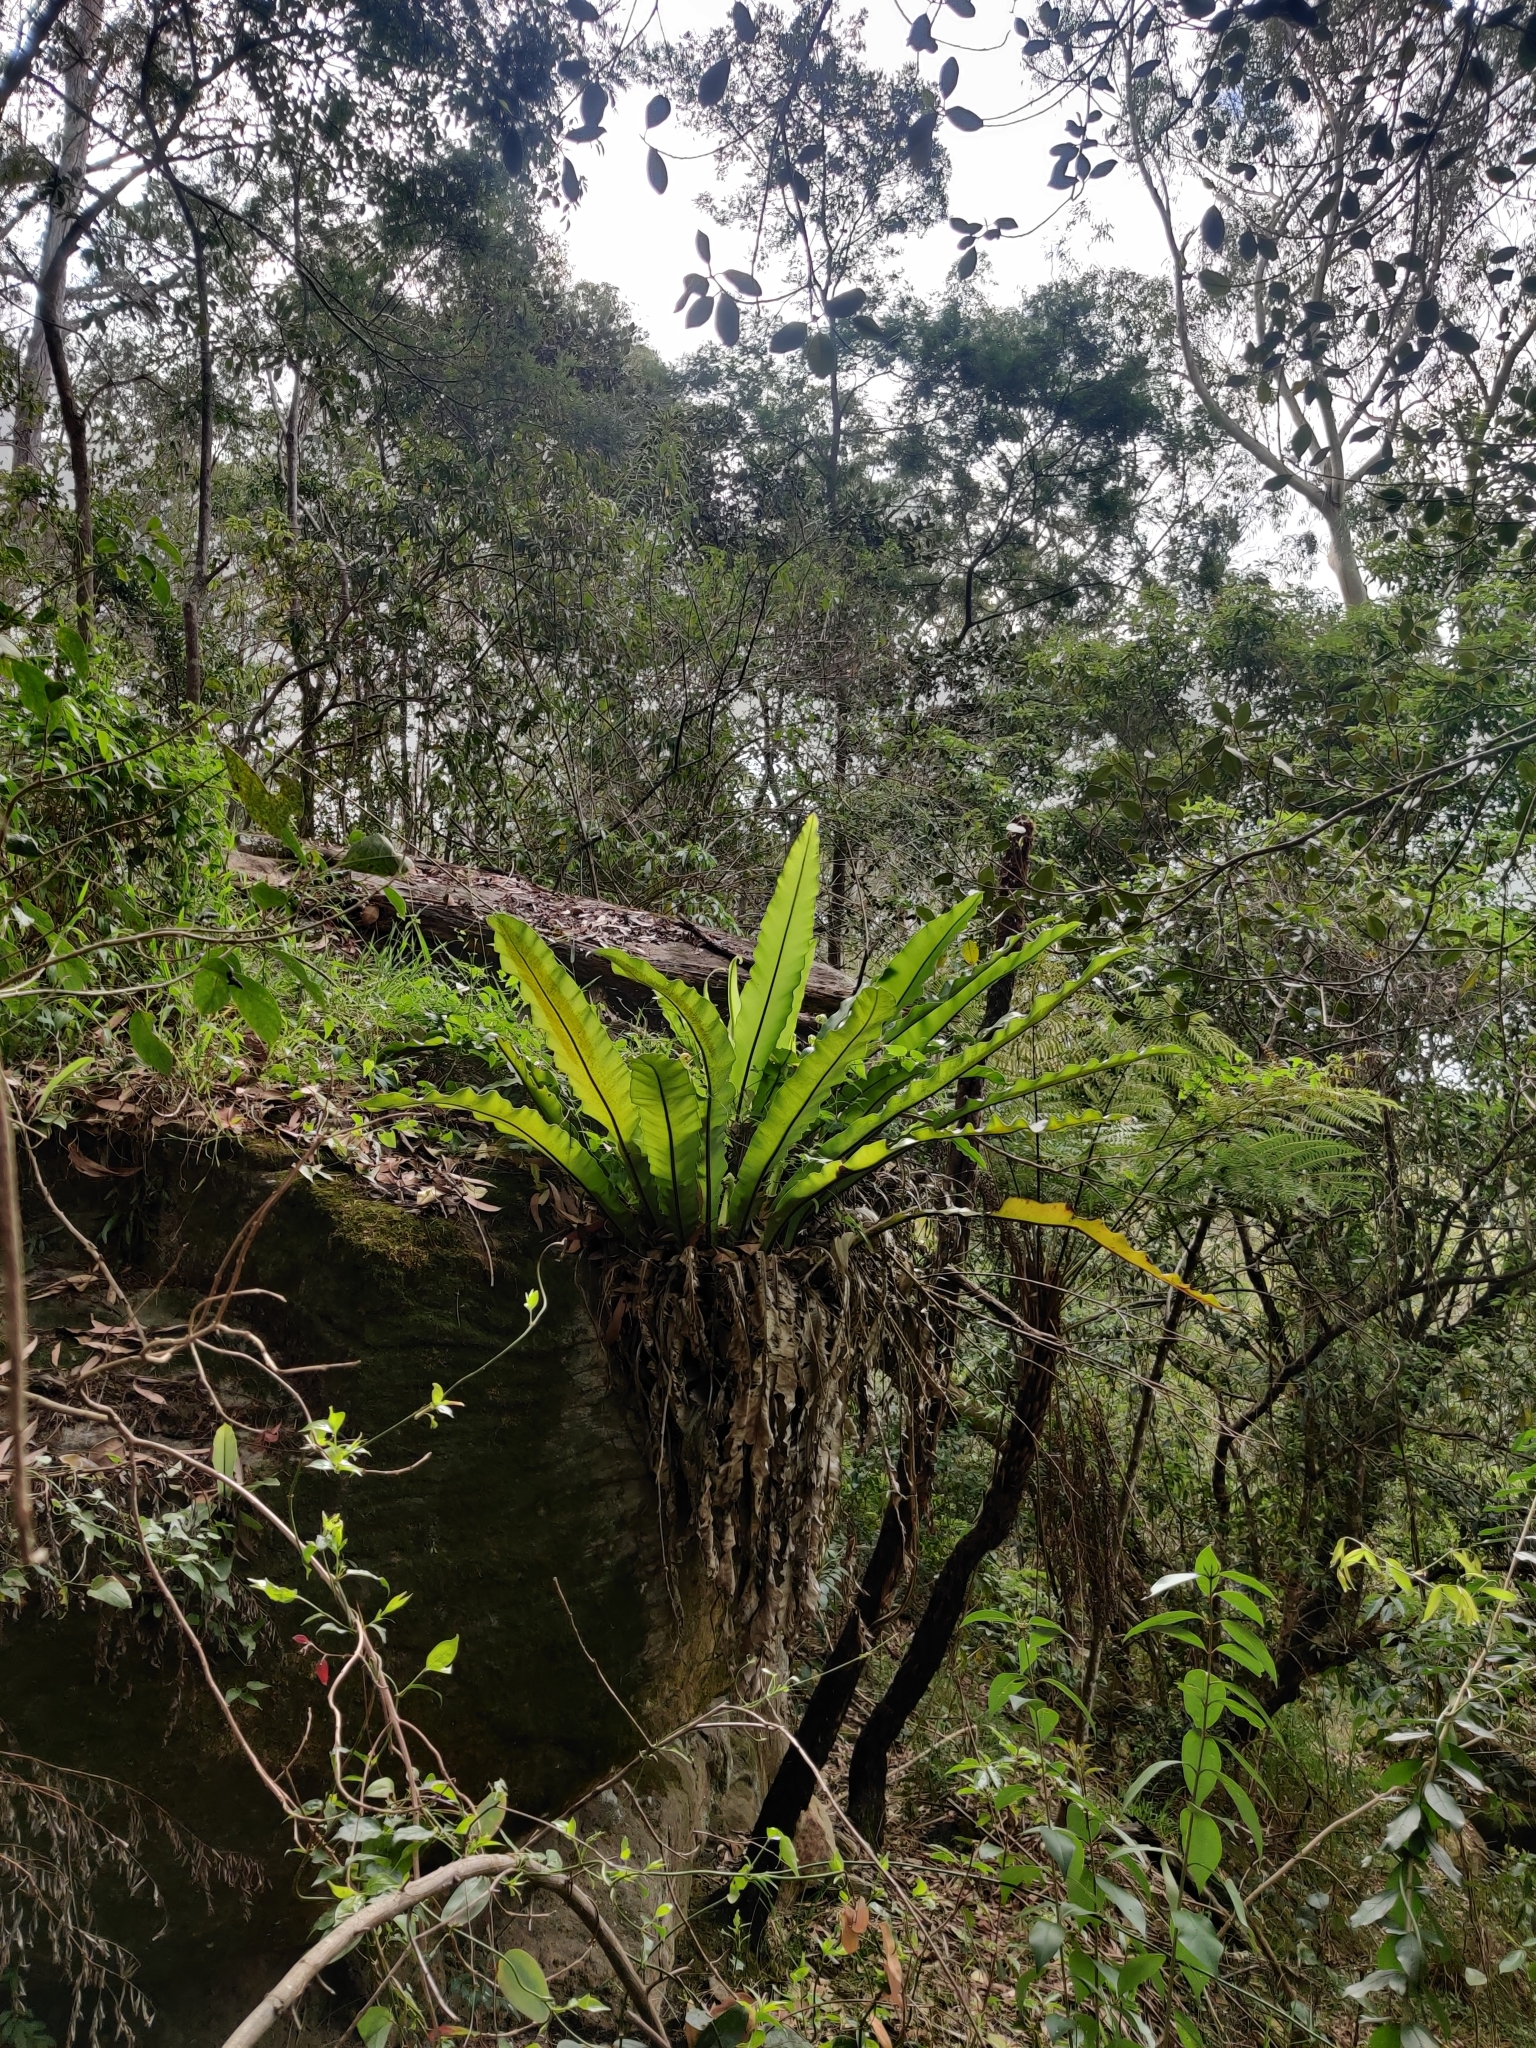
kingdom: Plantae
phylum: Tracheophyta
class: Polypodiopsida
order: Polypodiales
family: Aspleniaceae
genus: Asplenium
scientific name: Asplenium australasicum
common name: Bird's-nest fern
